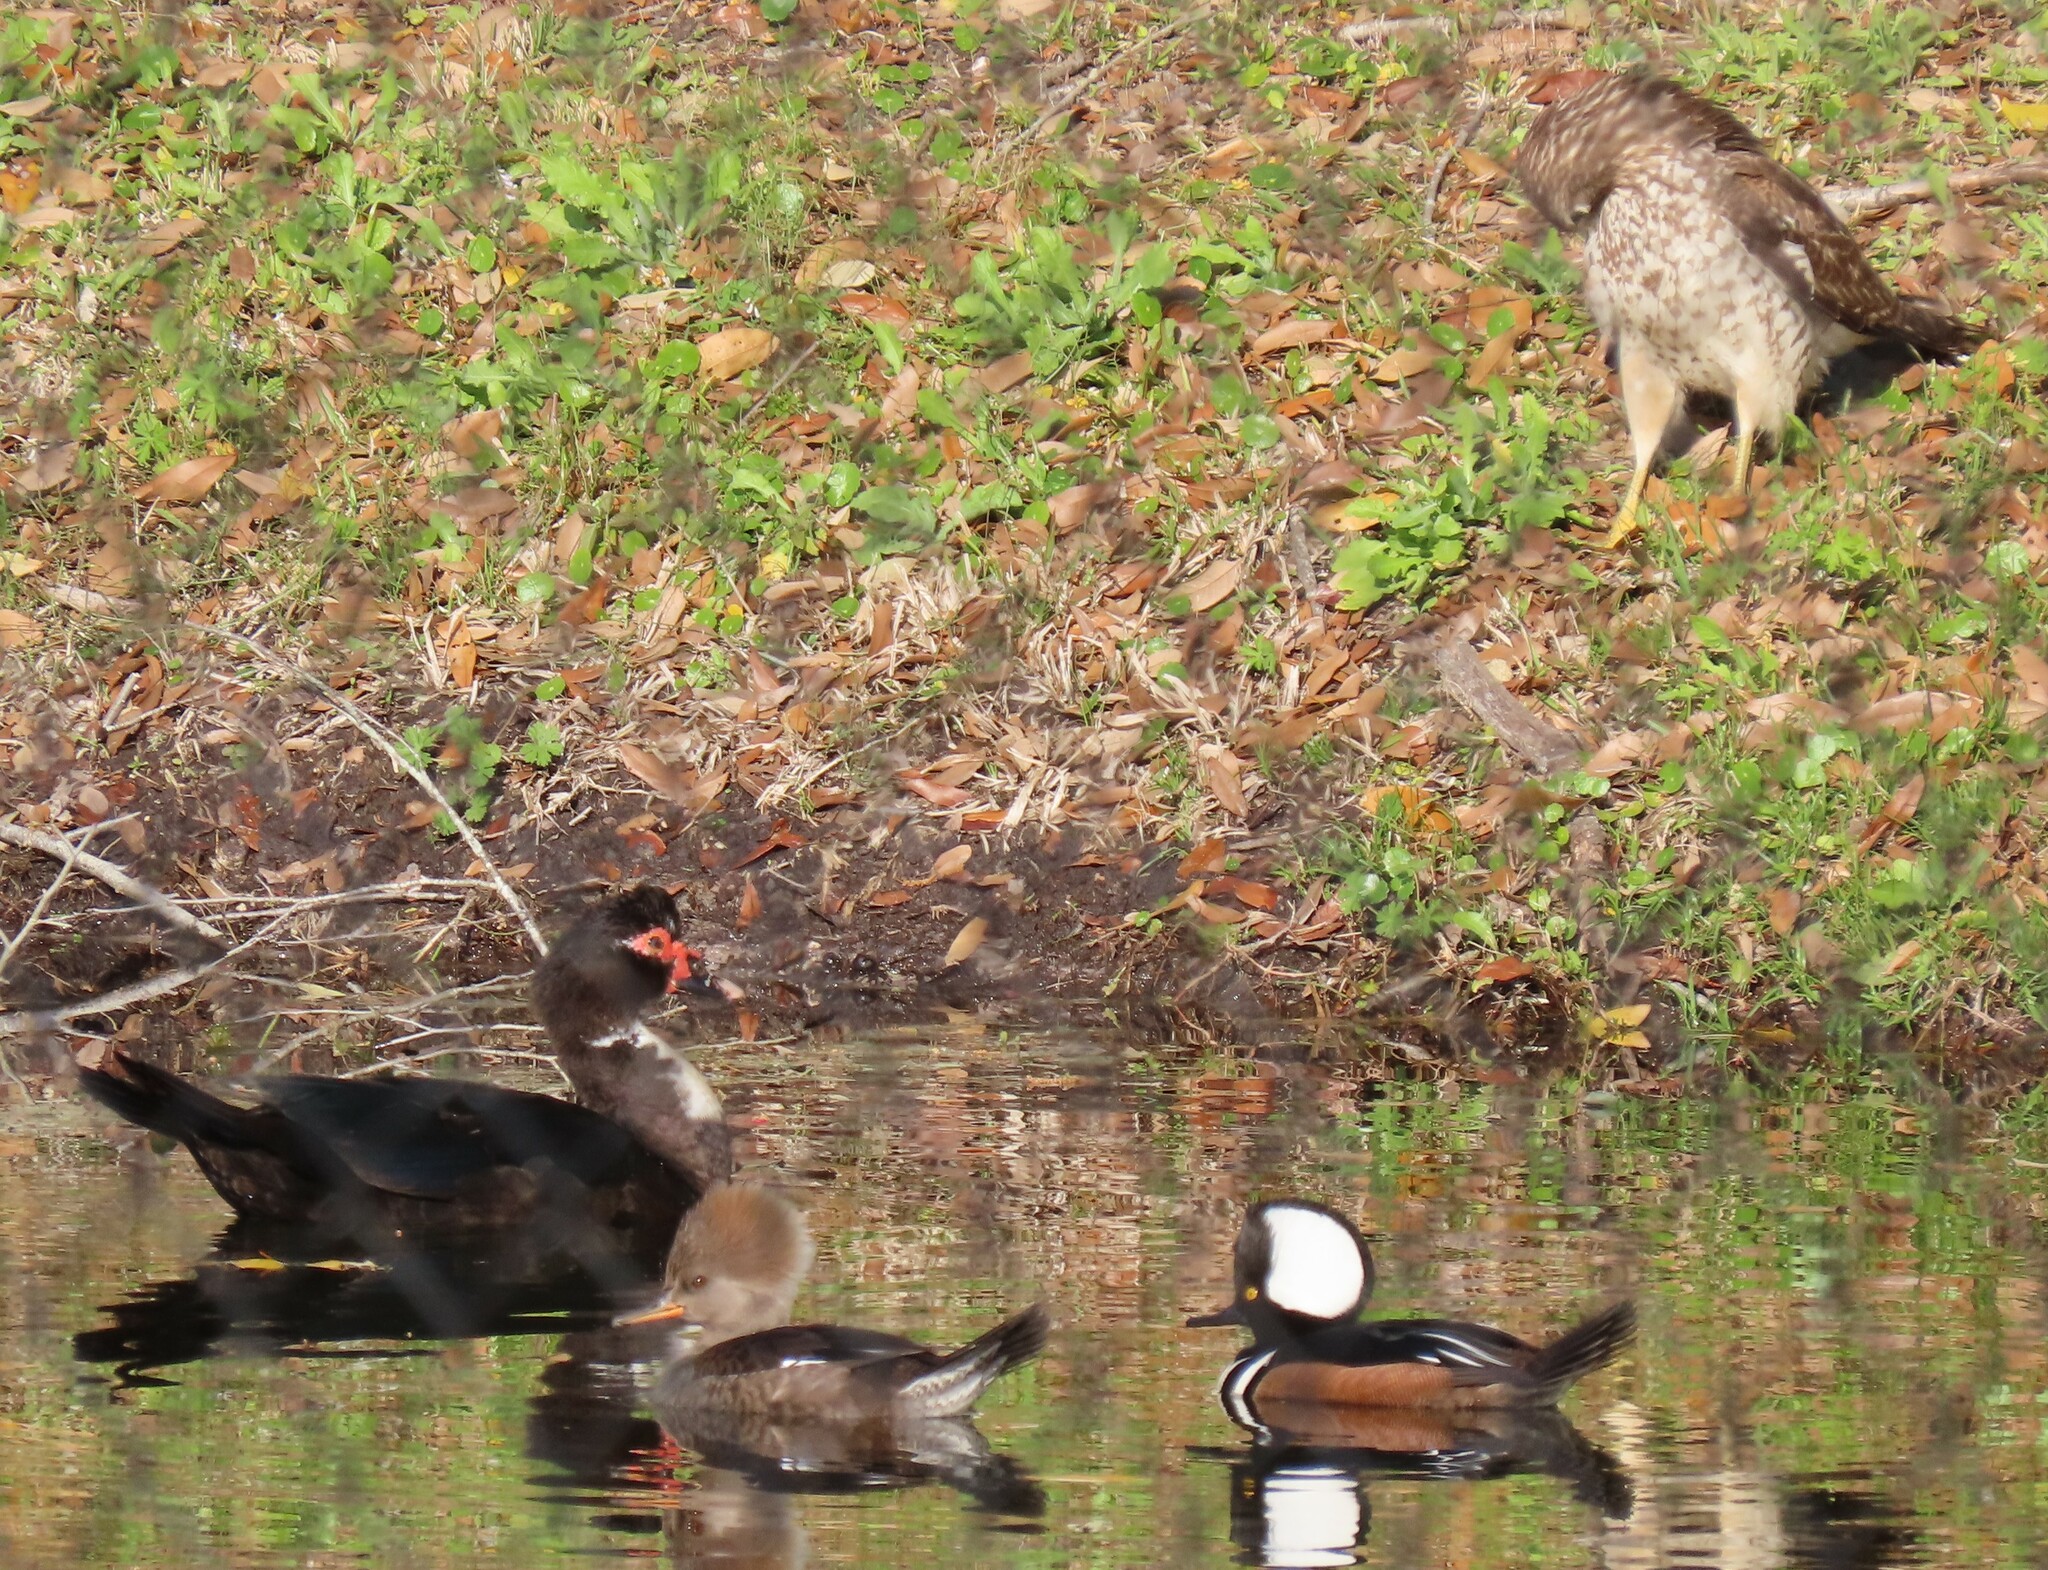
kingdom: Animalia
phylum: Chordata
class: Aves
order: Accipitriformes
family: Accipitridae
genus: Buteo
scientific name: Buteo lineatus
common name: Red-shouldered hawk
